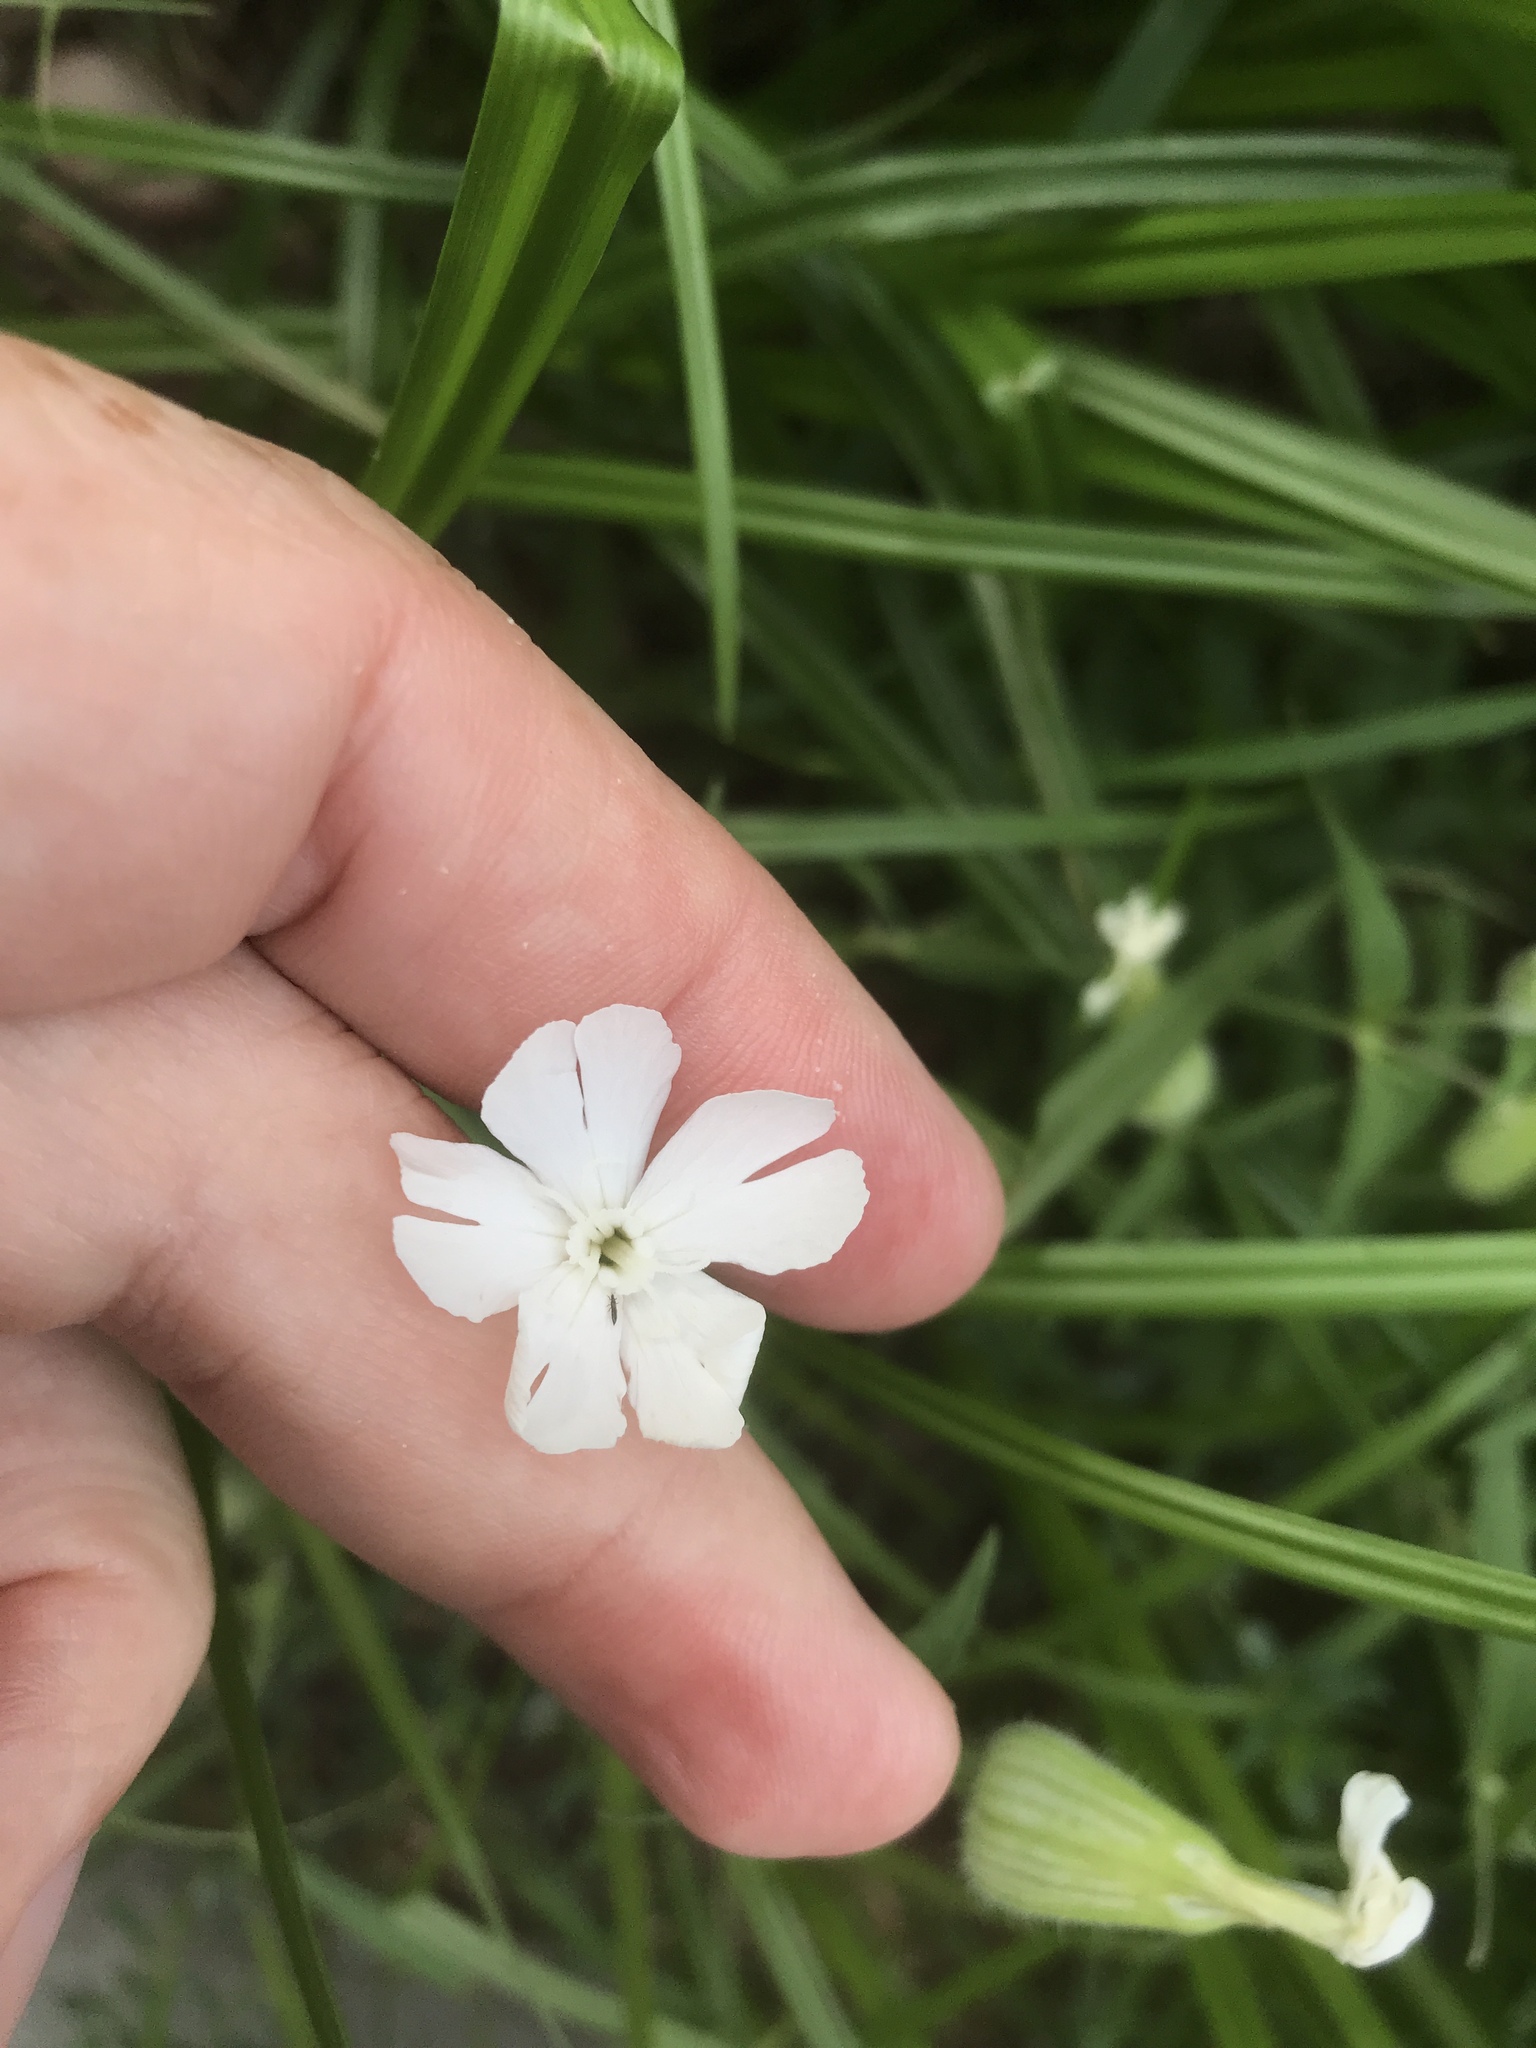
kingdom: Plantae
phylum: Tracheophyta
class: Magnoliopsida
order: Caryophyllales
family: Caryophyllaceae
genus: Silene
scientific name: Silene latifolia
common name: White campion
